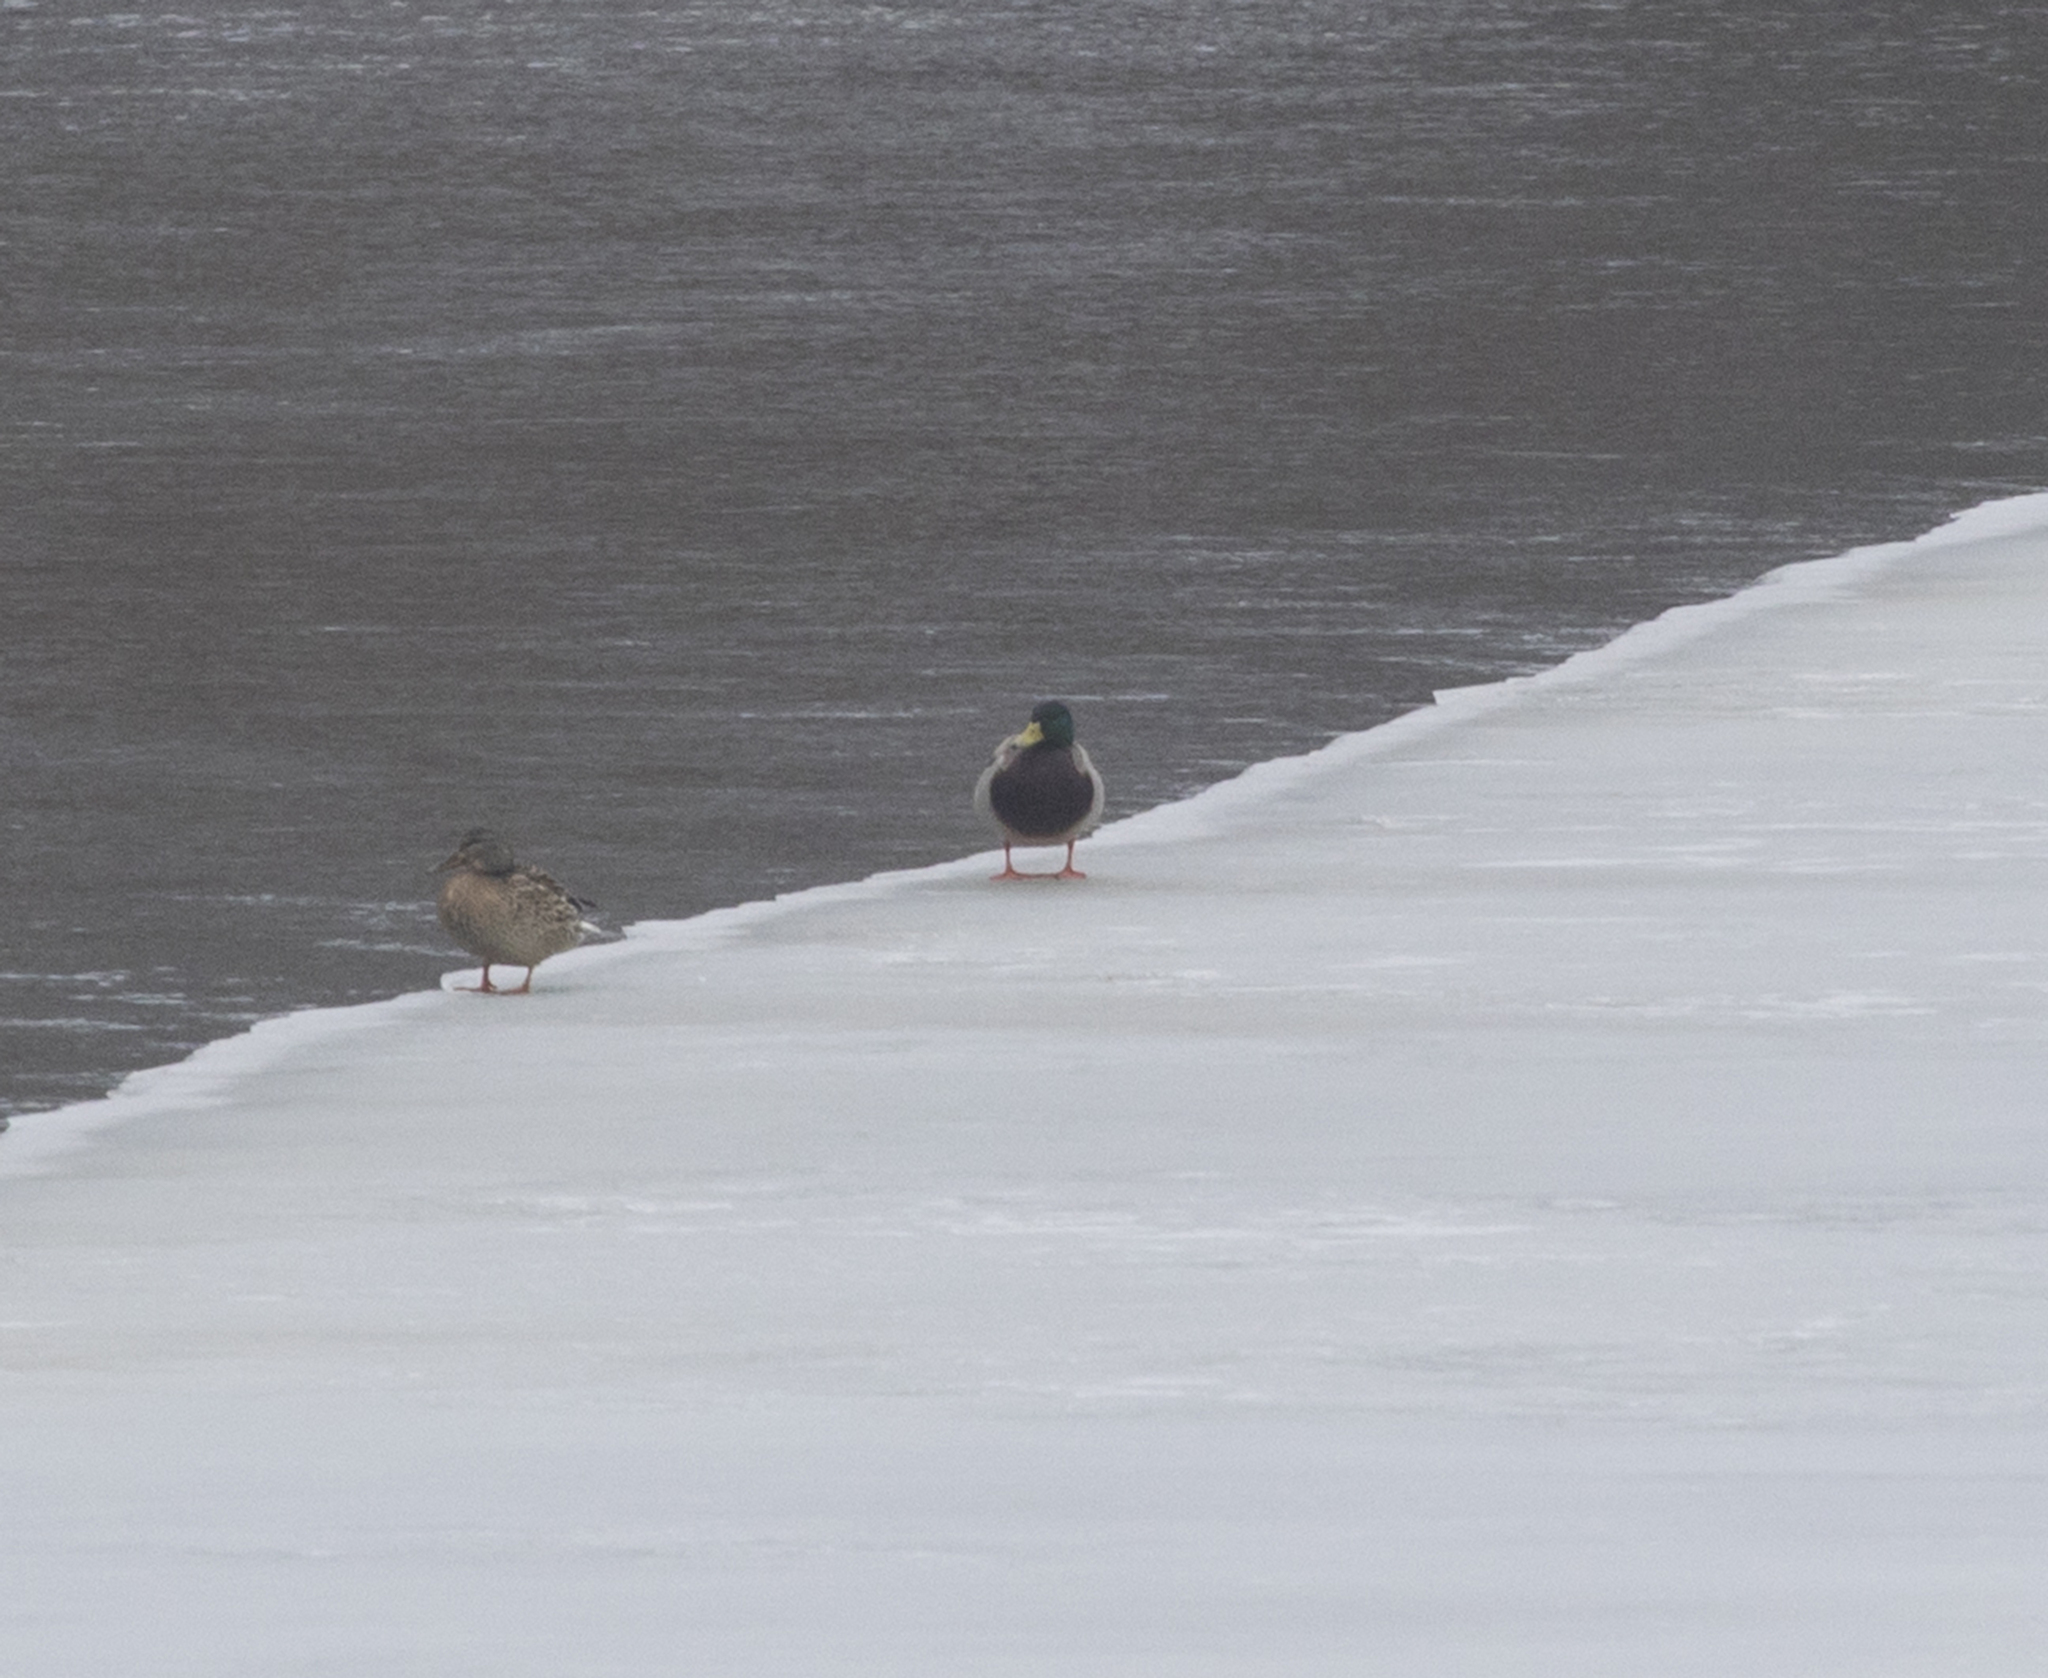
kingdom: Animalia
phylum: Chordata
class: Aves
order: Anseriformes
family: Anatidae
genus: Anas
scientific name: Anas platyrhynchos
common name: Mallard
